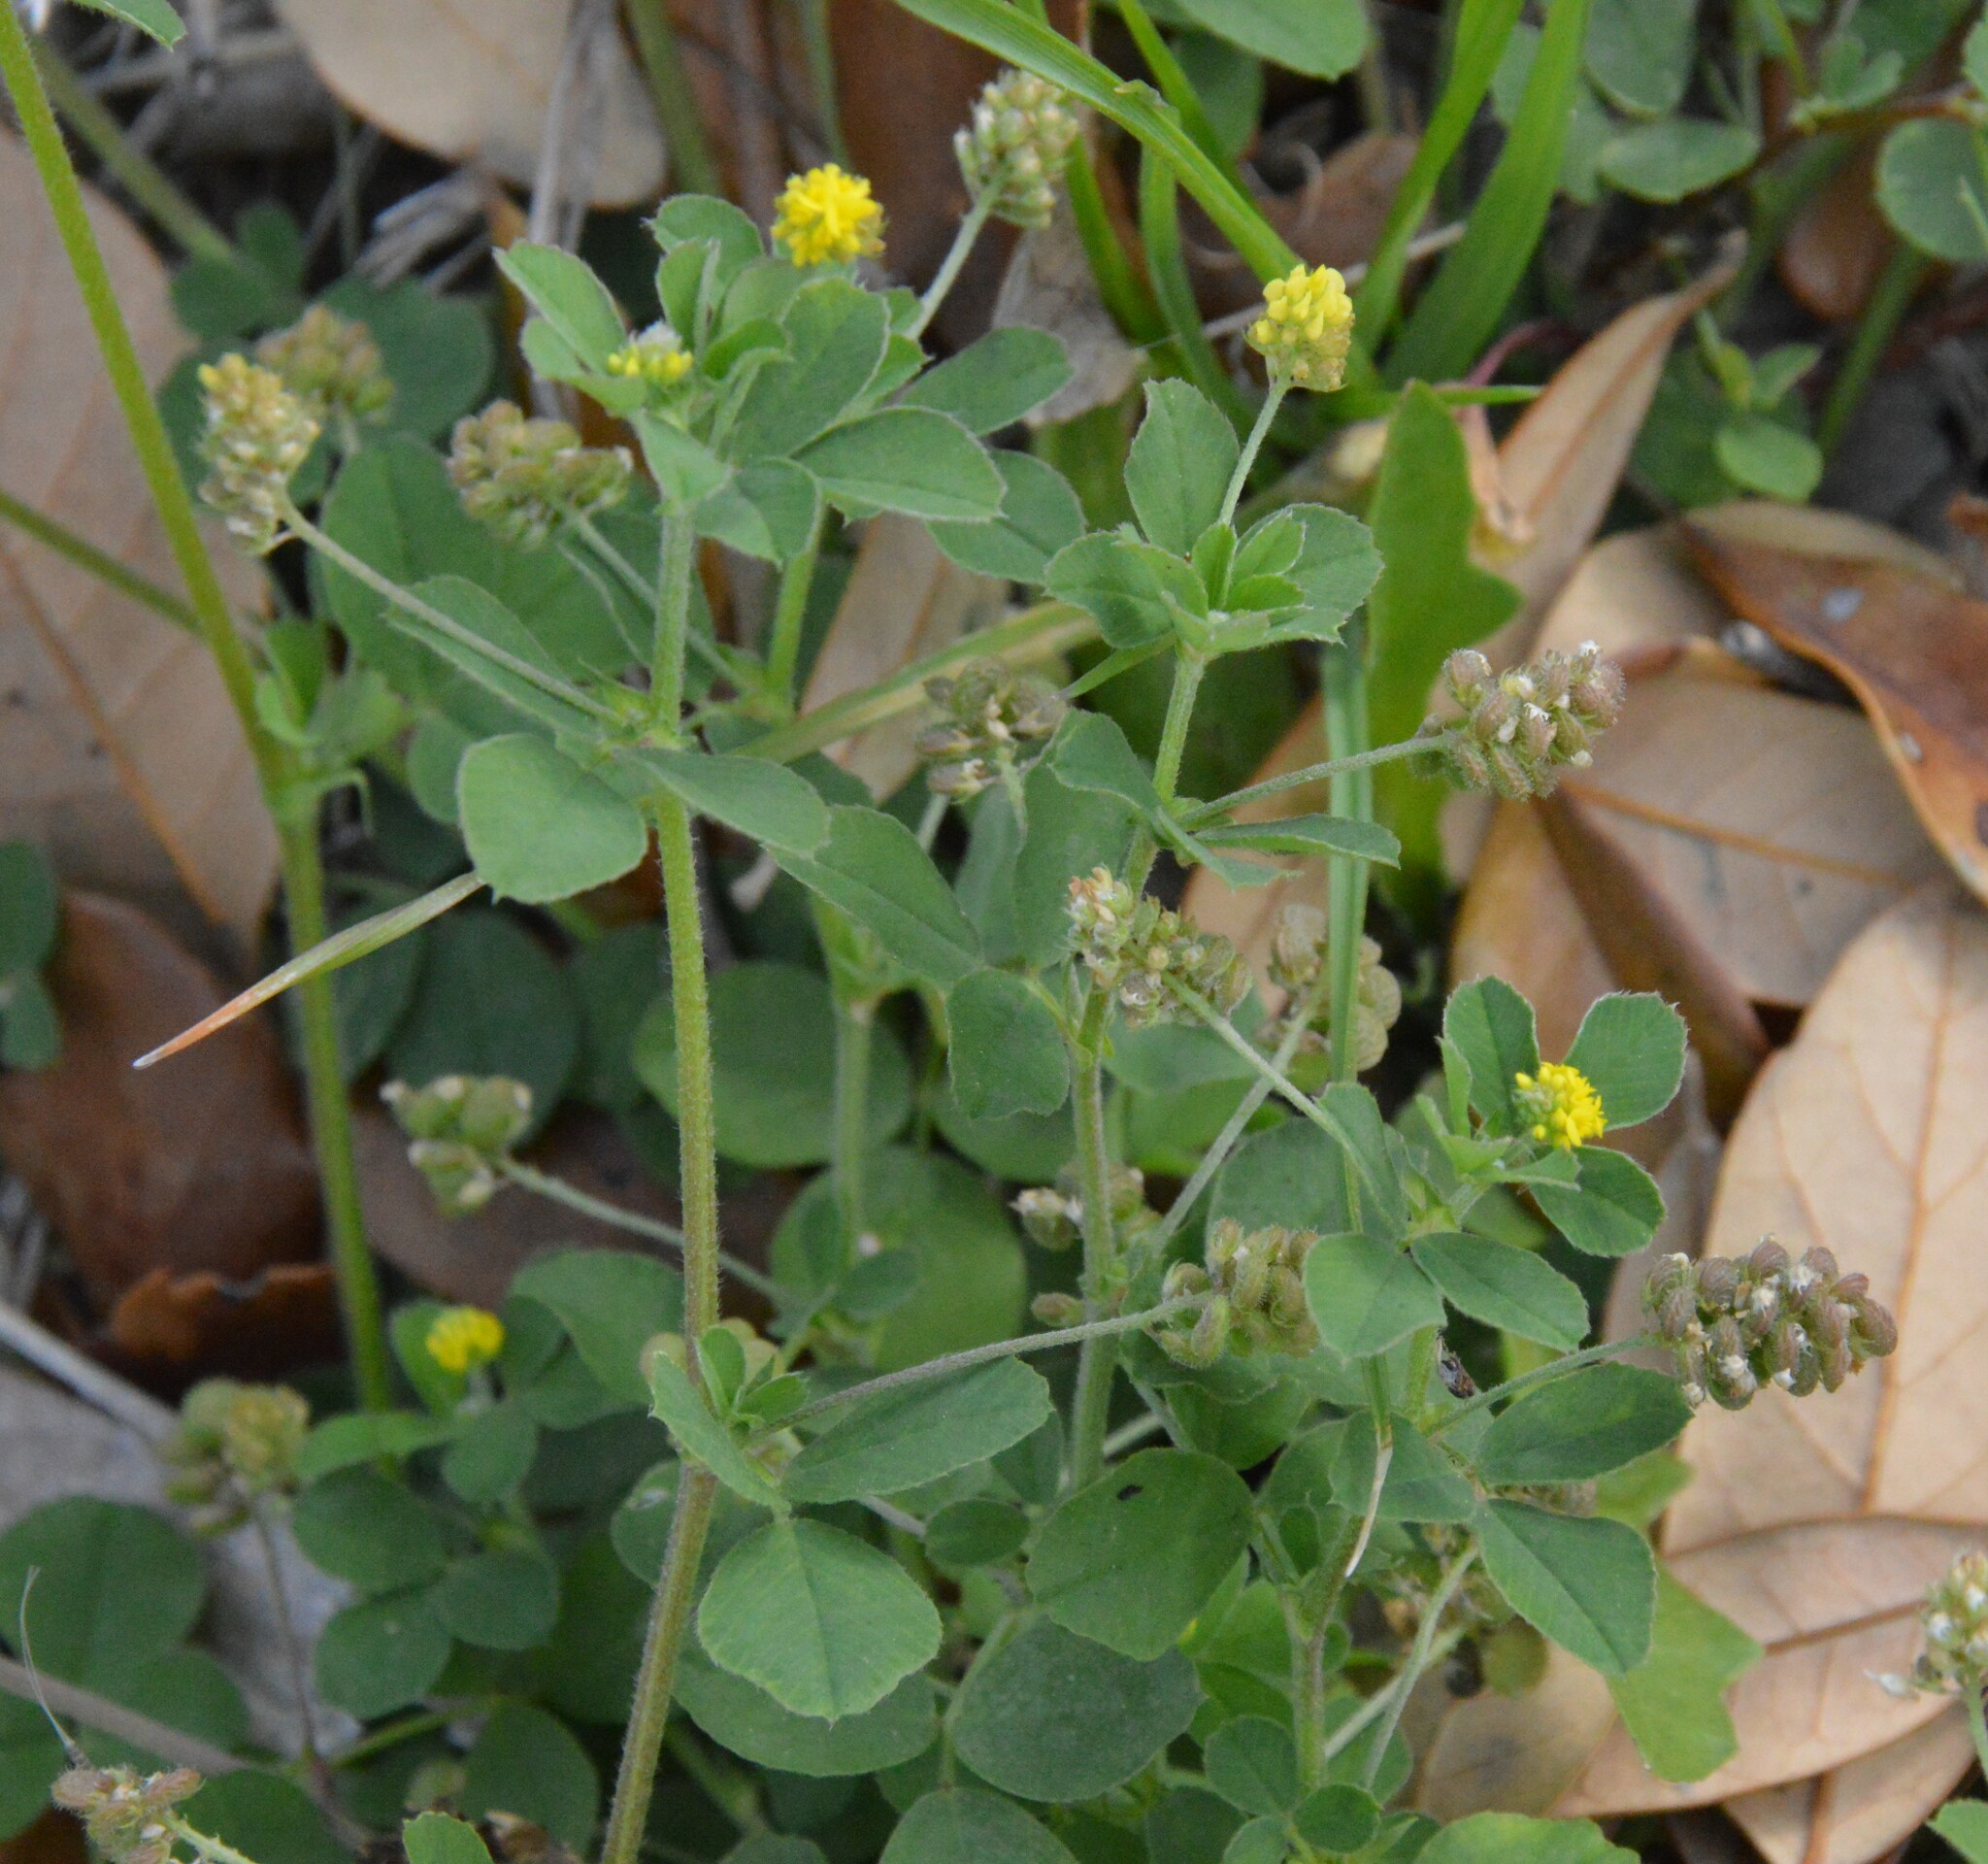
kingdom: Plantae
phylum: Tracheophyta
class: Magnoliopsida
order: Fabales
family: Fabaceae
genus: Medicago
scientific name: Medicago lupulina
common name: Black medick
